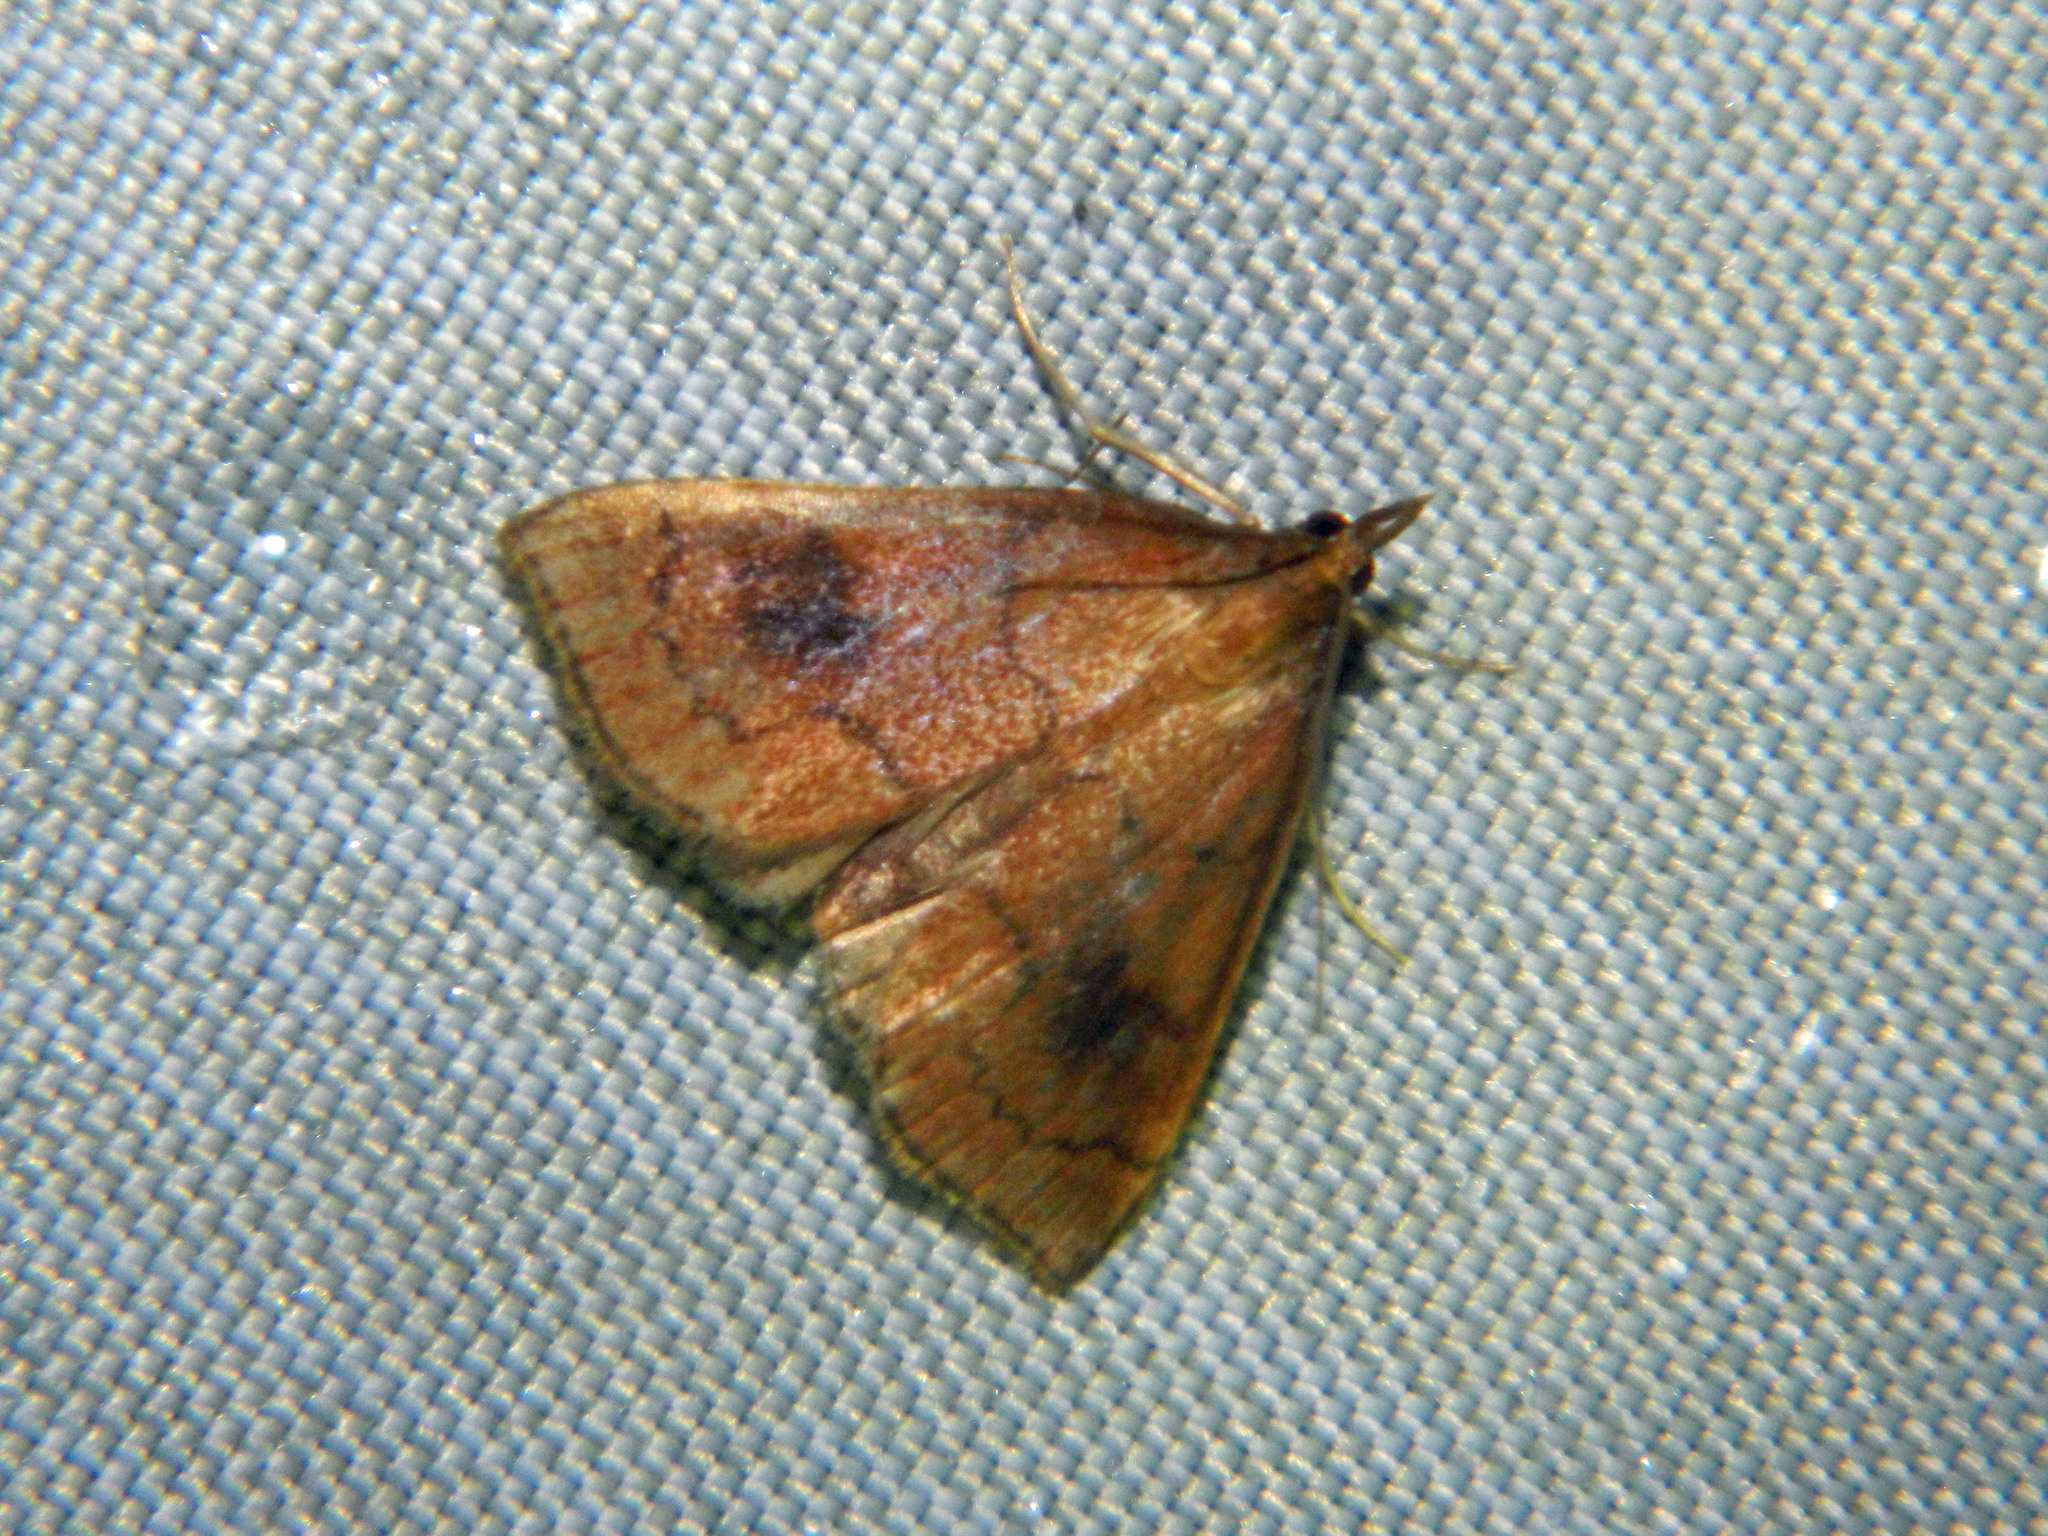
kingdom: Animalia
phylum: Arthropoda
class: Insecta
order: Lepidoptera
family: Crambidae
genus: Fumibotys
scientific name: Fumibotys fumalis
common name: Mint root borer moth
